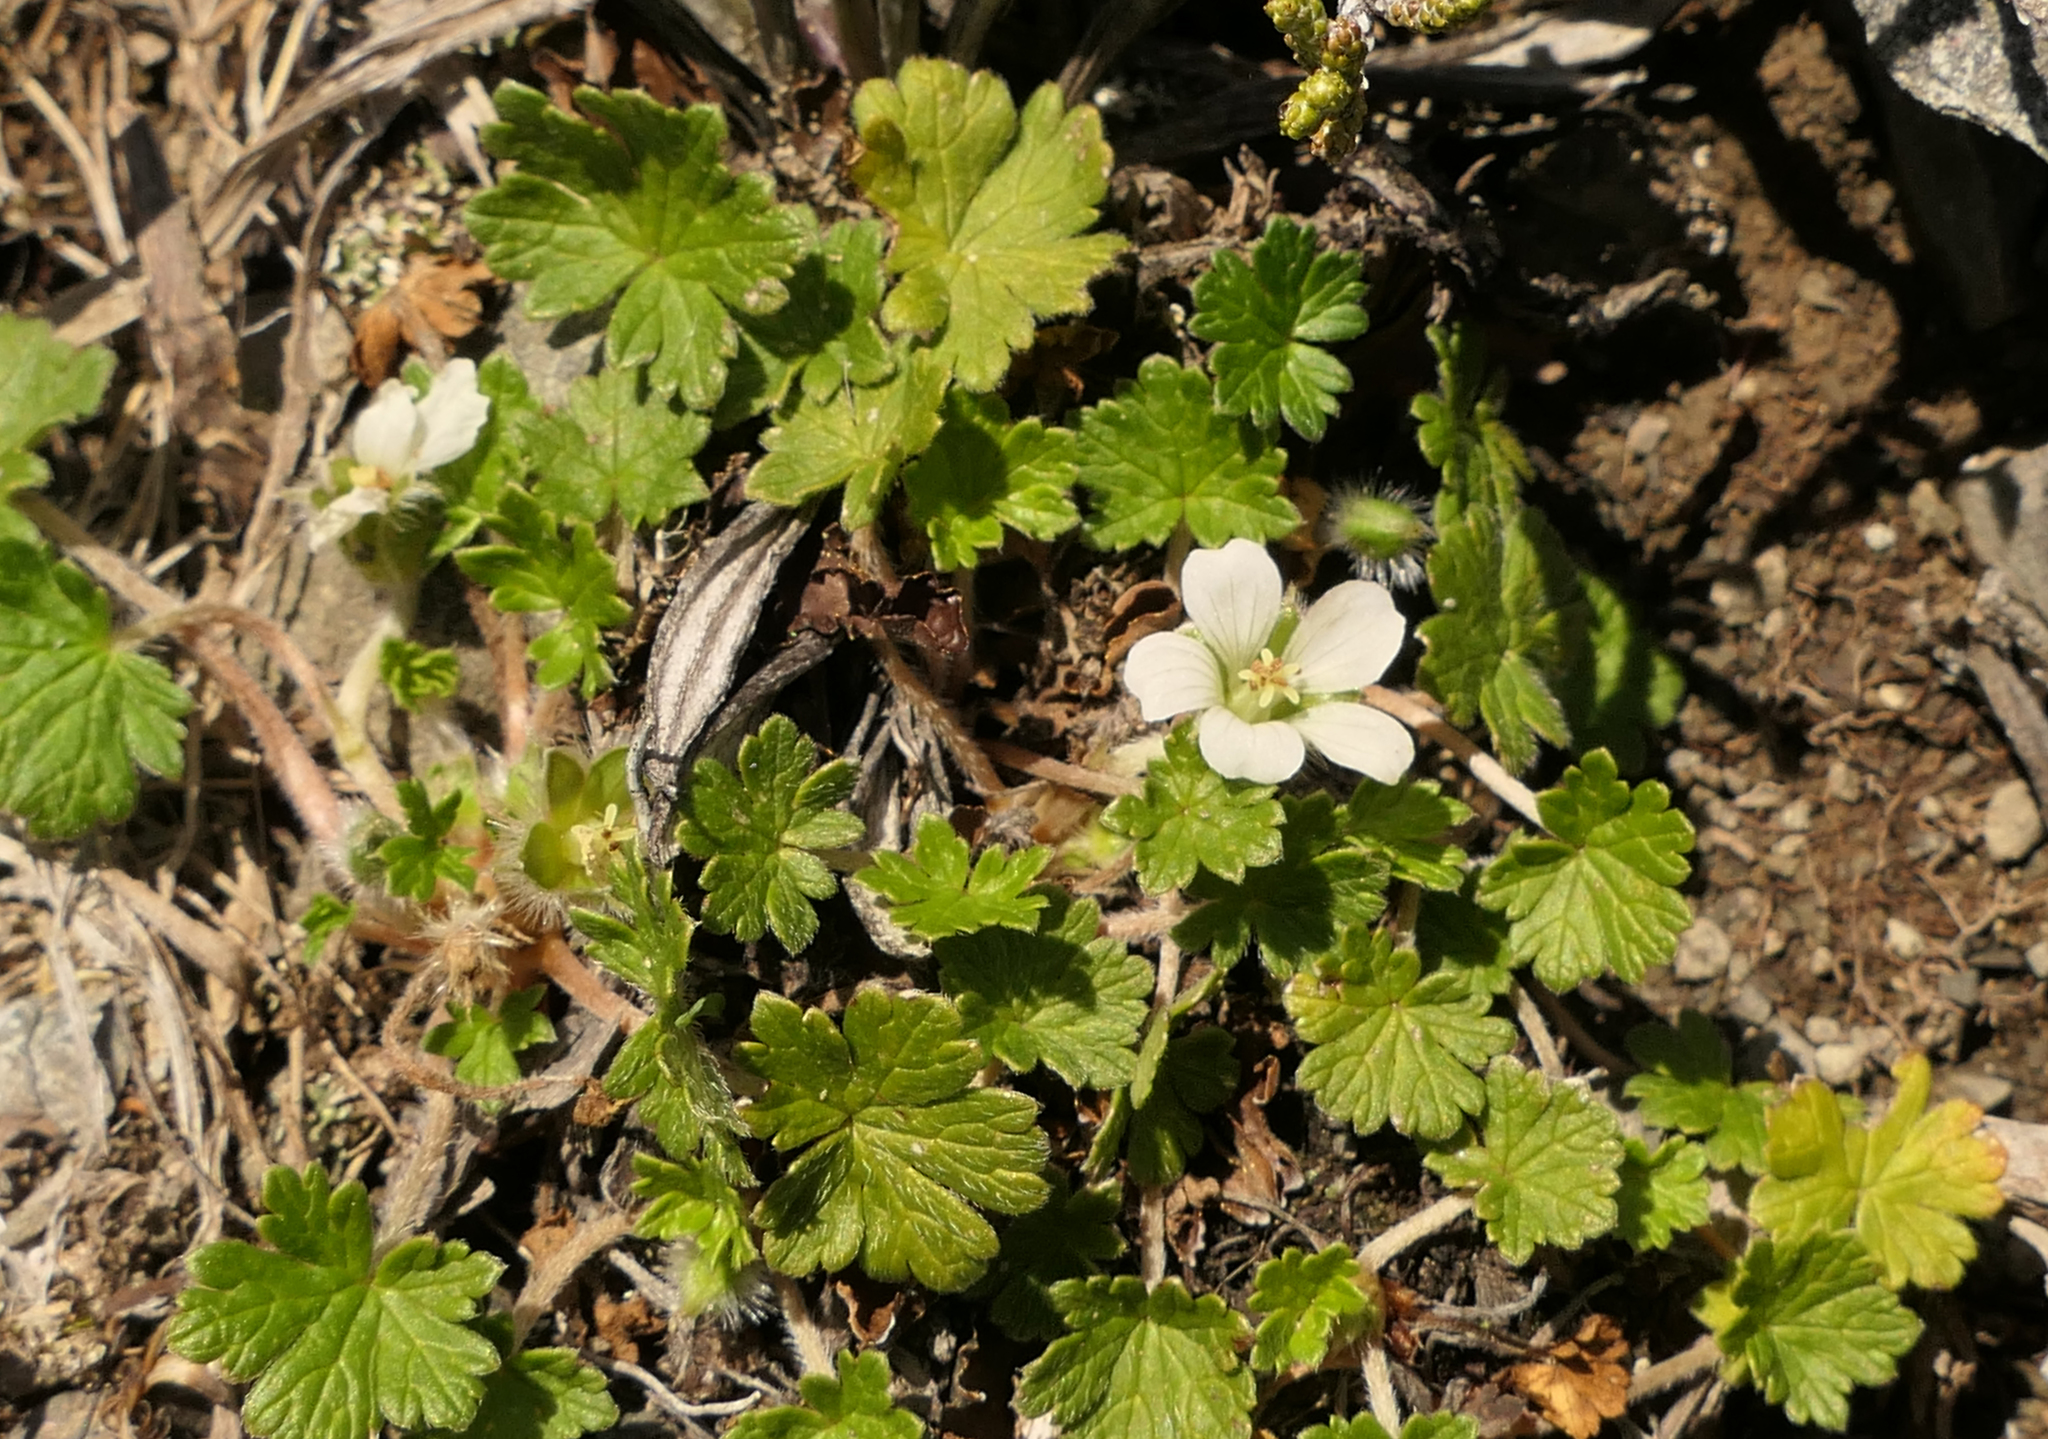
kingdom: Plantae
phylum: Tracheophyta
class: Magnoliopsida
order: Geraniales
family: Geraniaceae
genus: Geranium
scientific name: Geranium brevicaule
